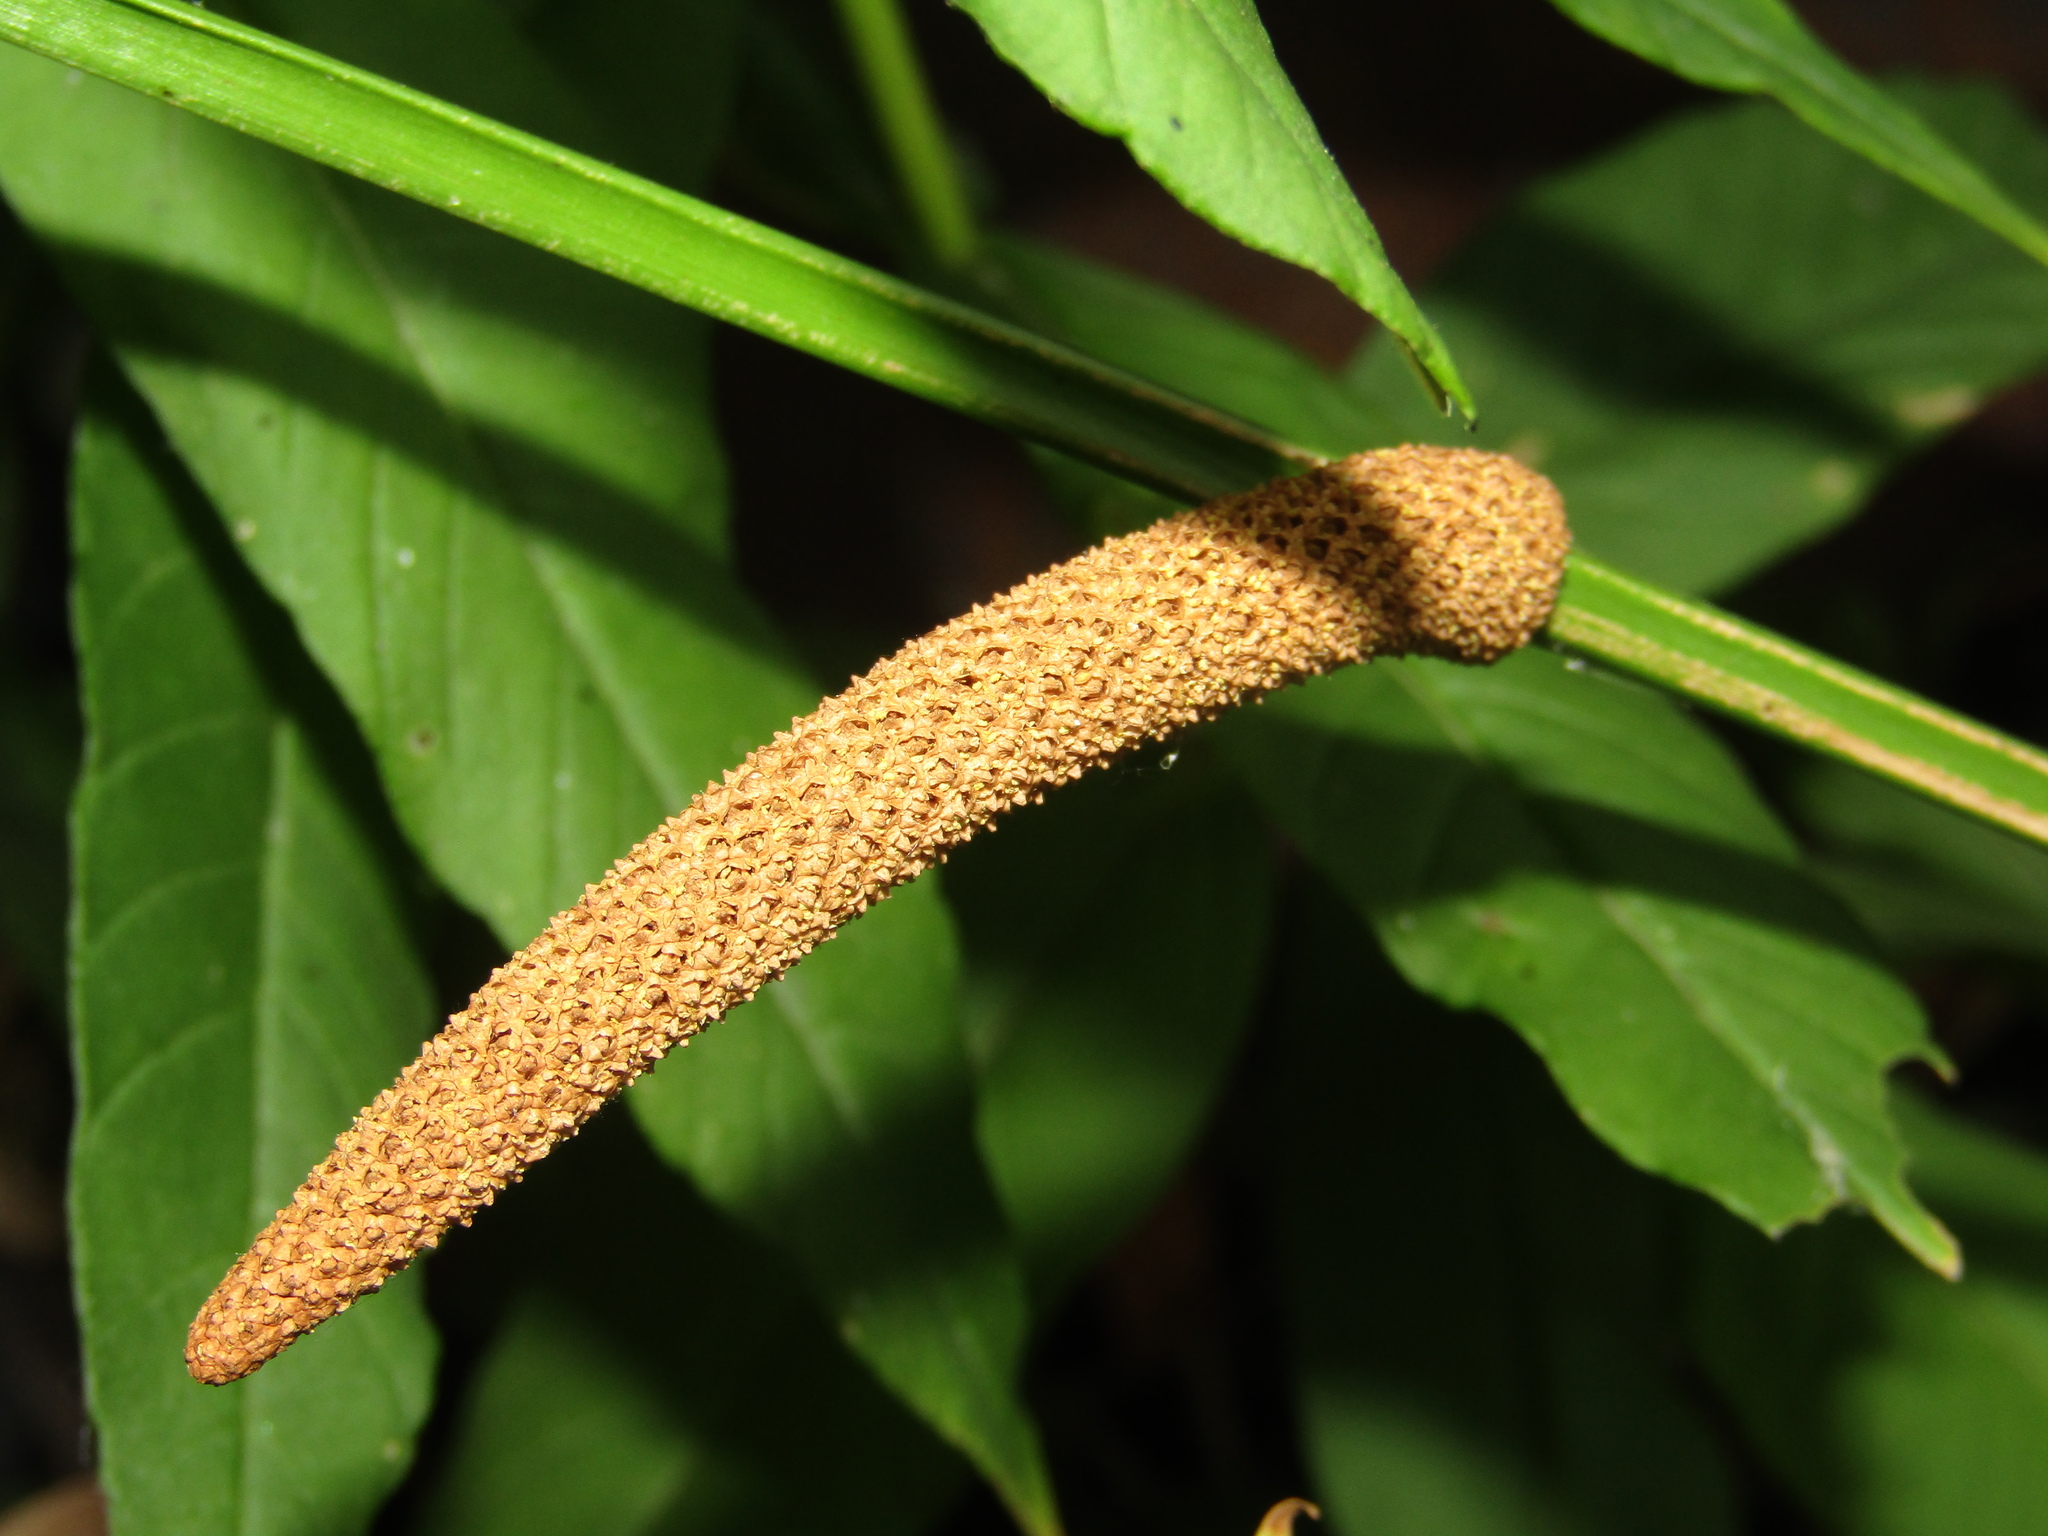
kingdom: Plantae
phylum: Tracheophyta
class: Liliopsida
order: Acorales
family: Acoraceae
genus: Acorus
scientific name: Acorus calamus
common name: Sweet-flag
